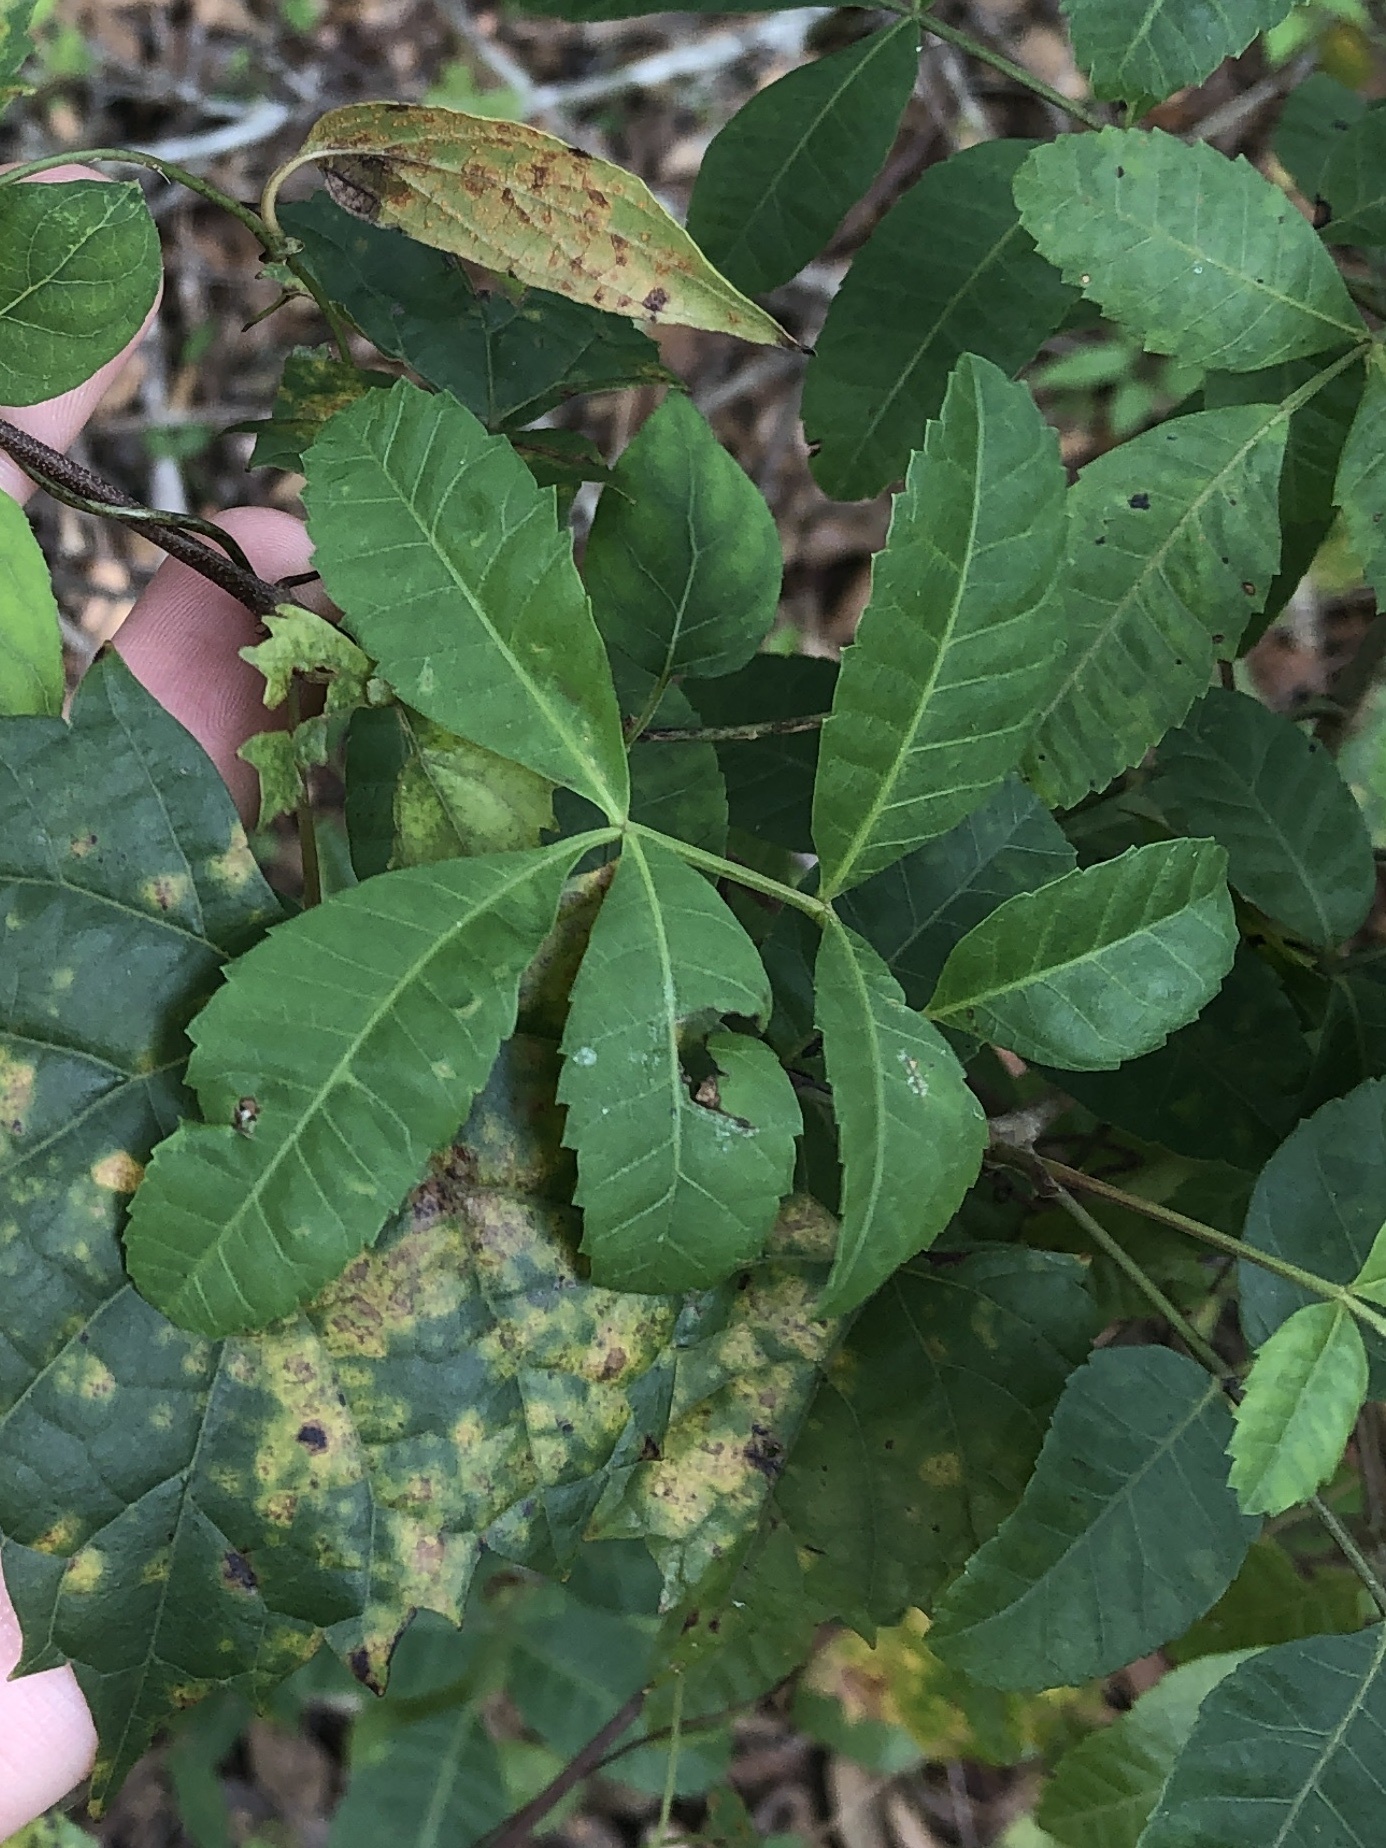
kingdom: Plantae
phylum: Tracheophyta
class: Magnoliopsida
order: Sapindales
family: Anacardiaceae
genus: Schinus
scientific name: Schinus terebinthifolia
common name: Brazilian peppertree
